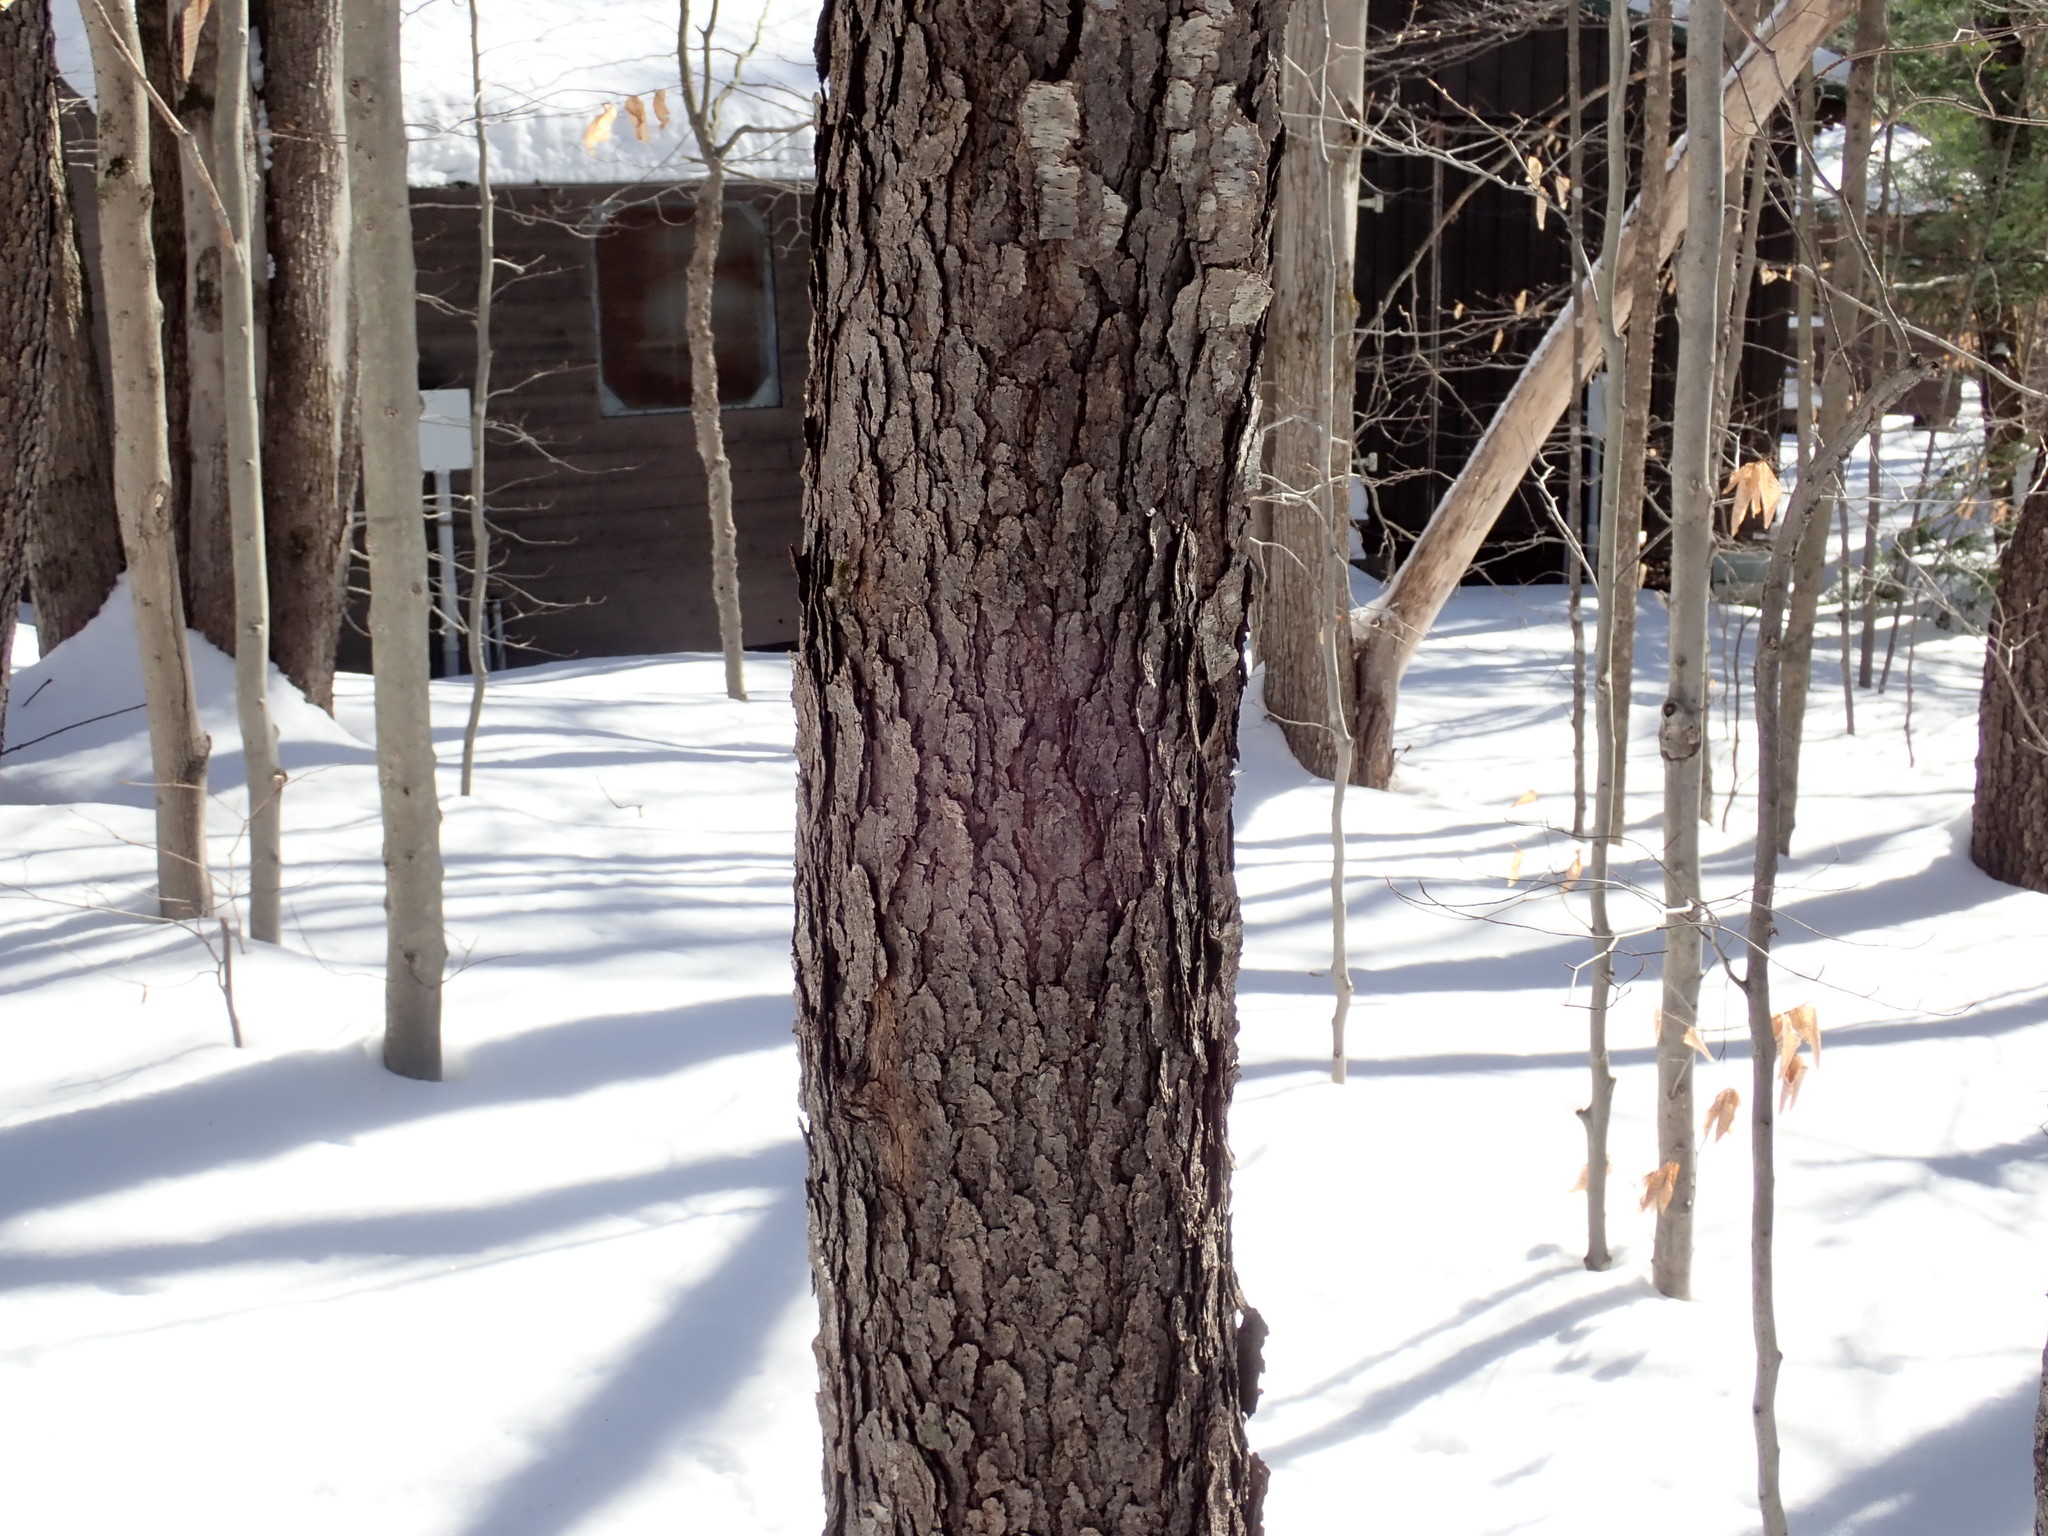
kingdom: Plantae
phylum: Tracheophyta
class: Magnoliopsida
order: Rosales
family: Rosaceae
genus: Prunus
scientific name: Prunus serotina
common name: Black cherry
